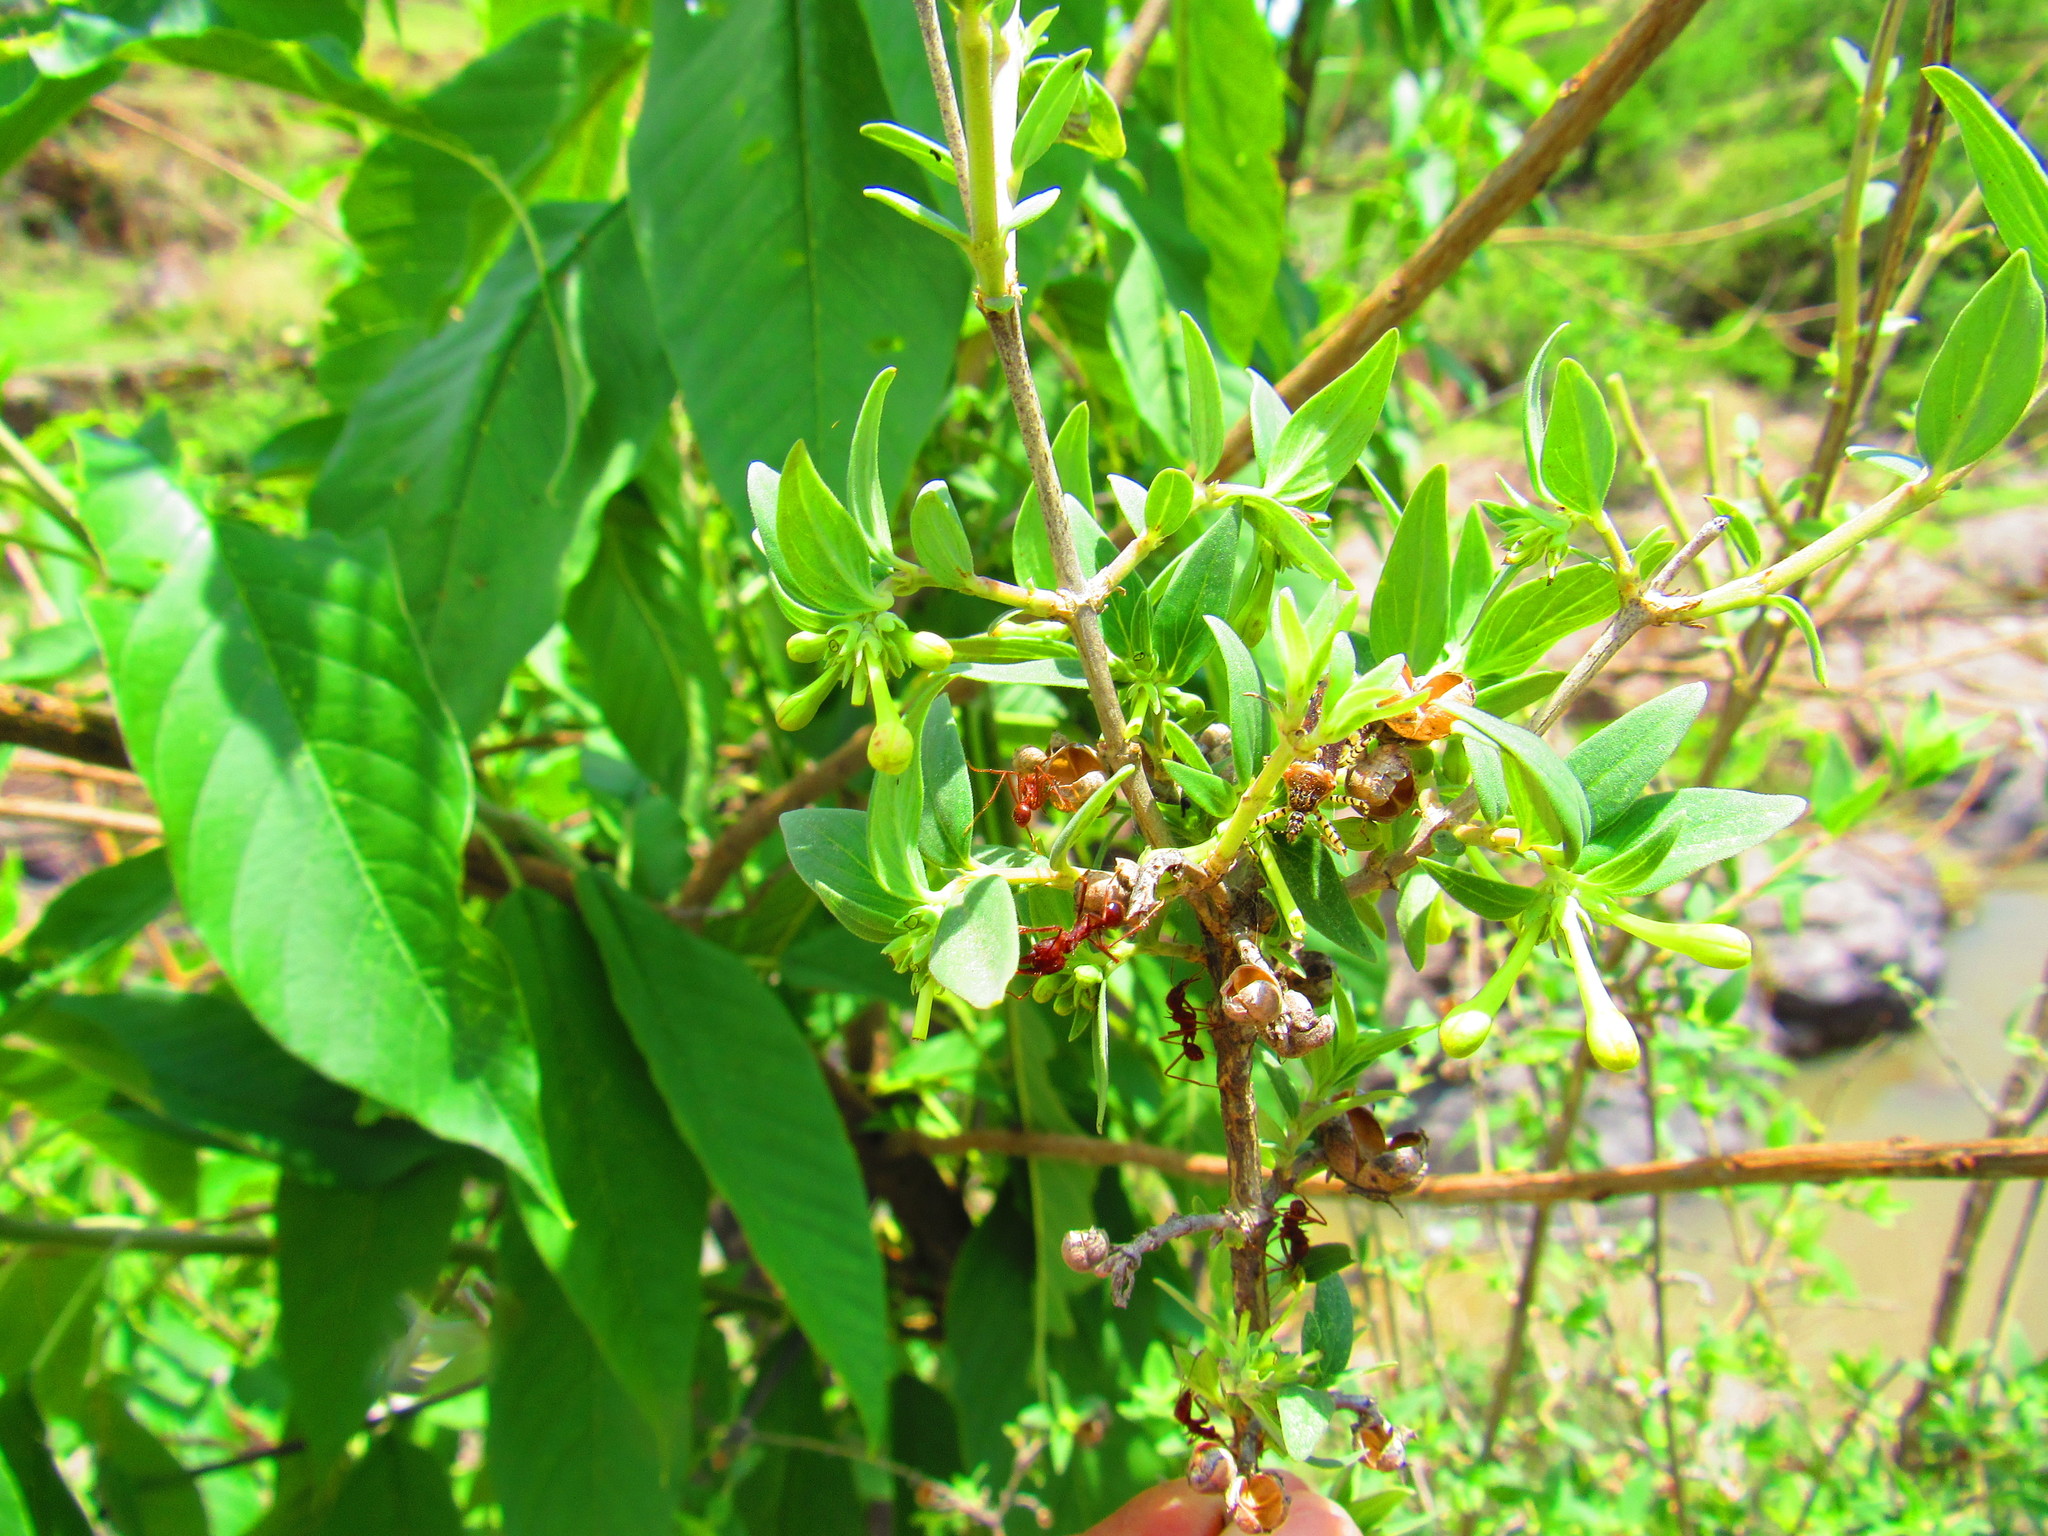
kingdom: Animalia
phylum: Arthropoda
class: Insecta
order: Hymenoptera
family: Formicidae
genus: Atta
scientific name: Atta mexicana
